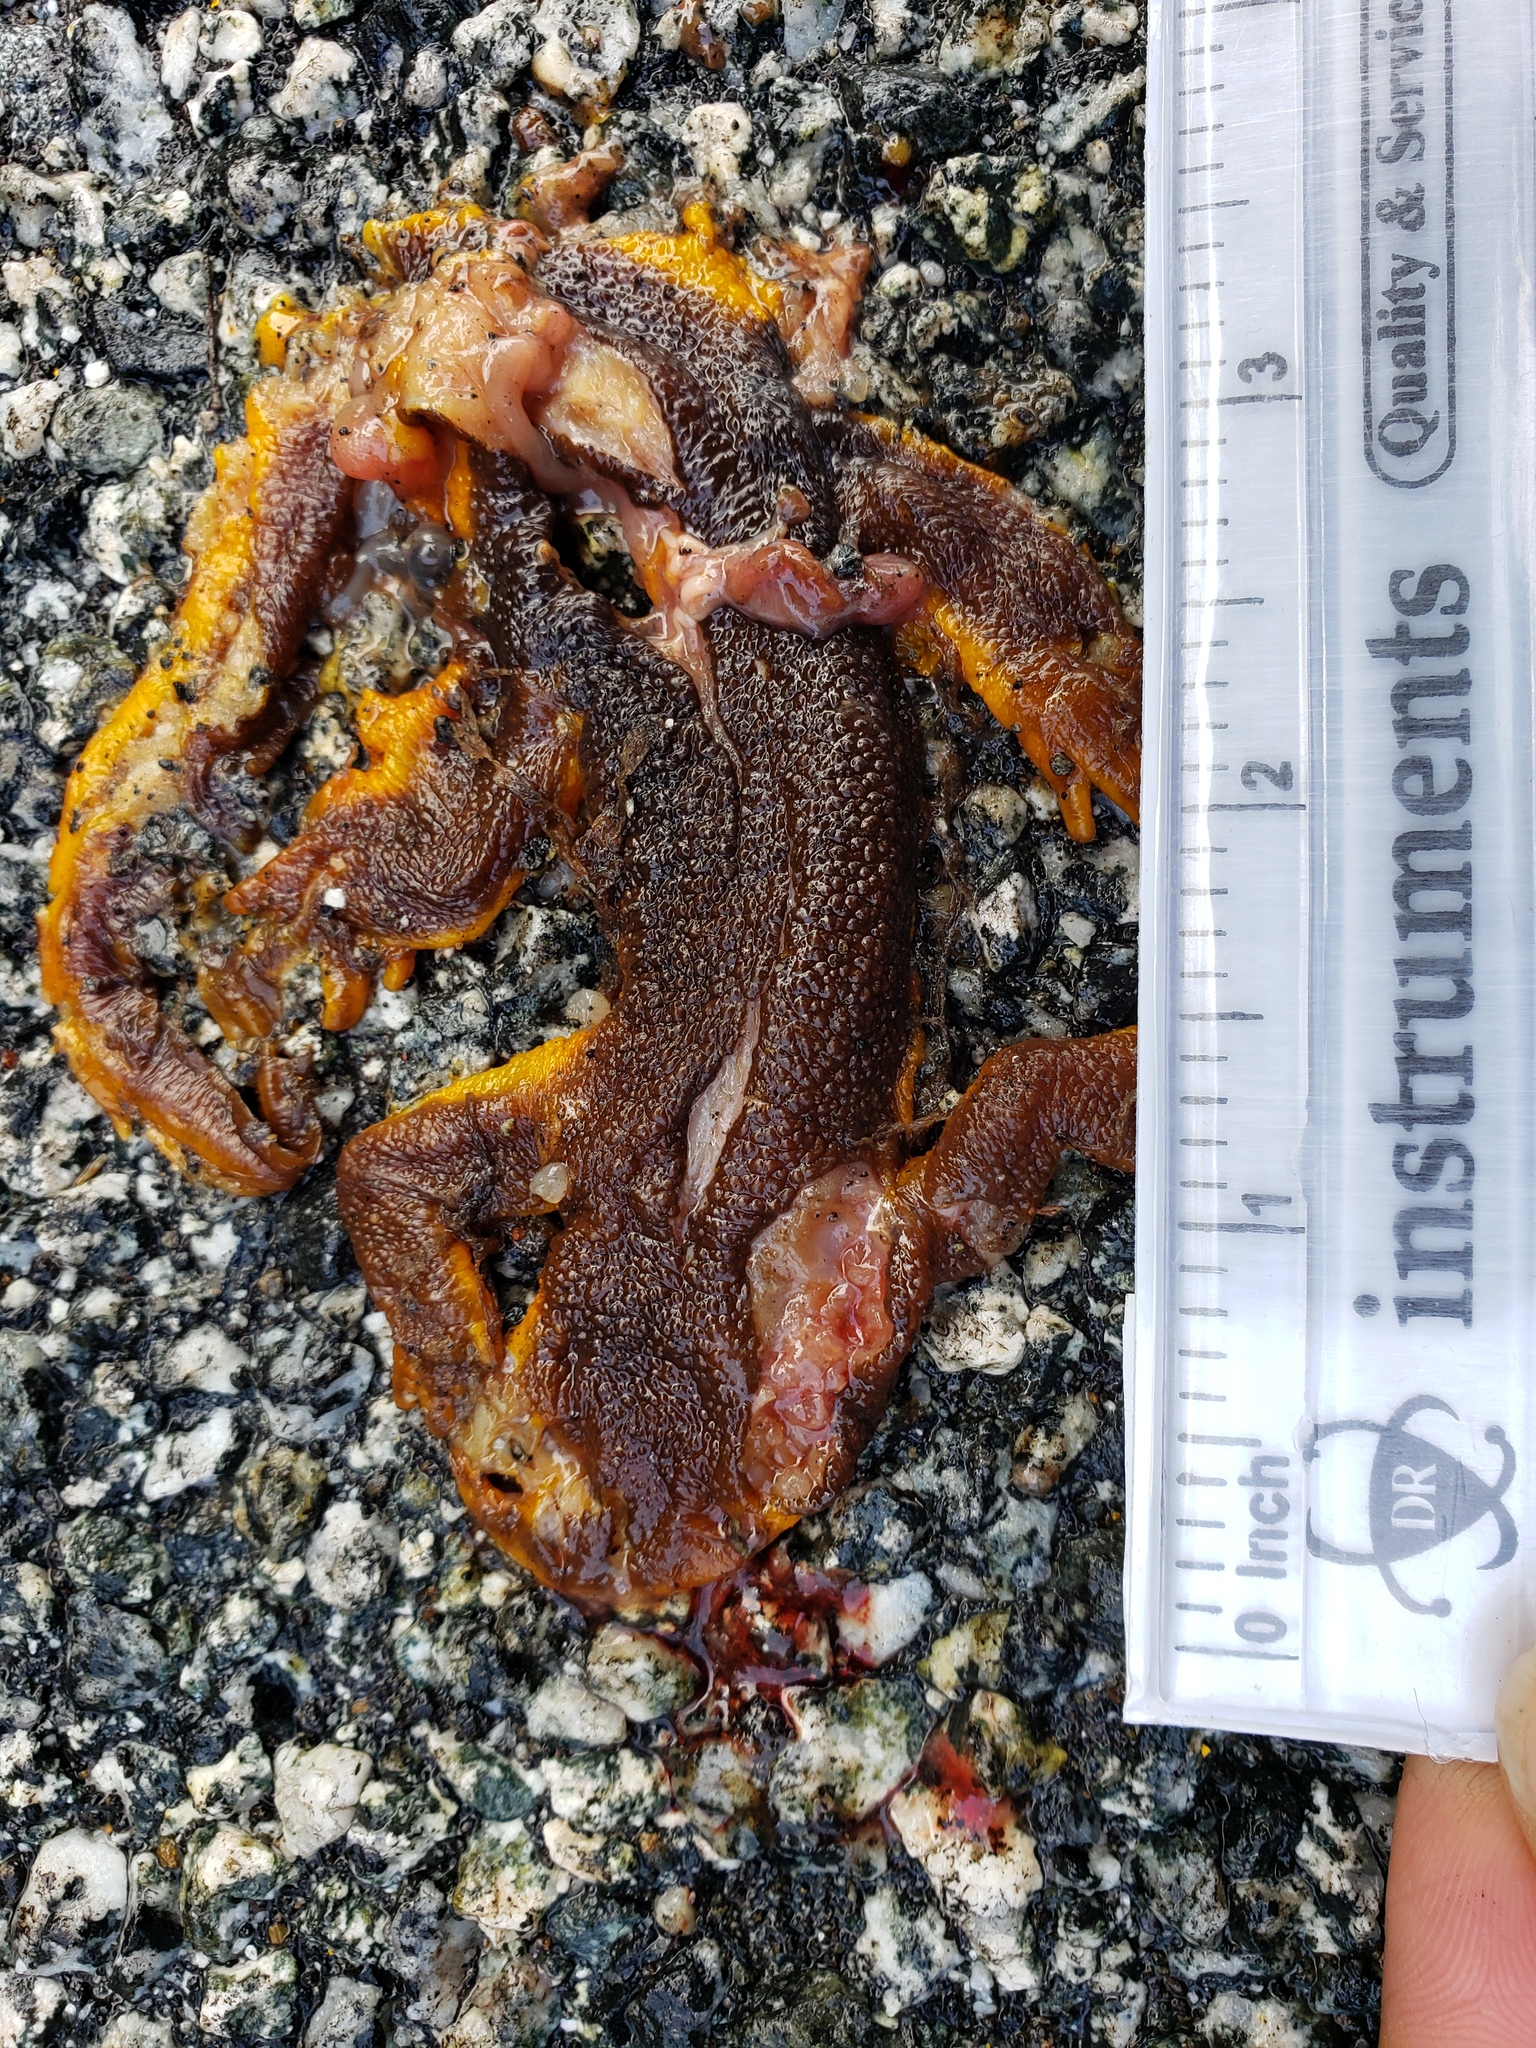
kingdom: Animalia
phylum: Chordata
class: Amphibia
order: Caudata
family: Salamandridae
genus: Taricha
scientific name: Taricha
